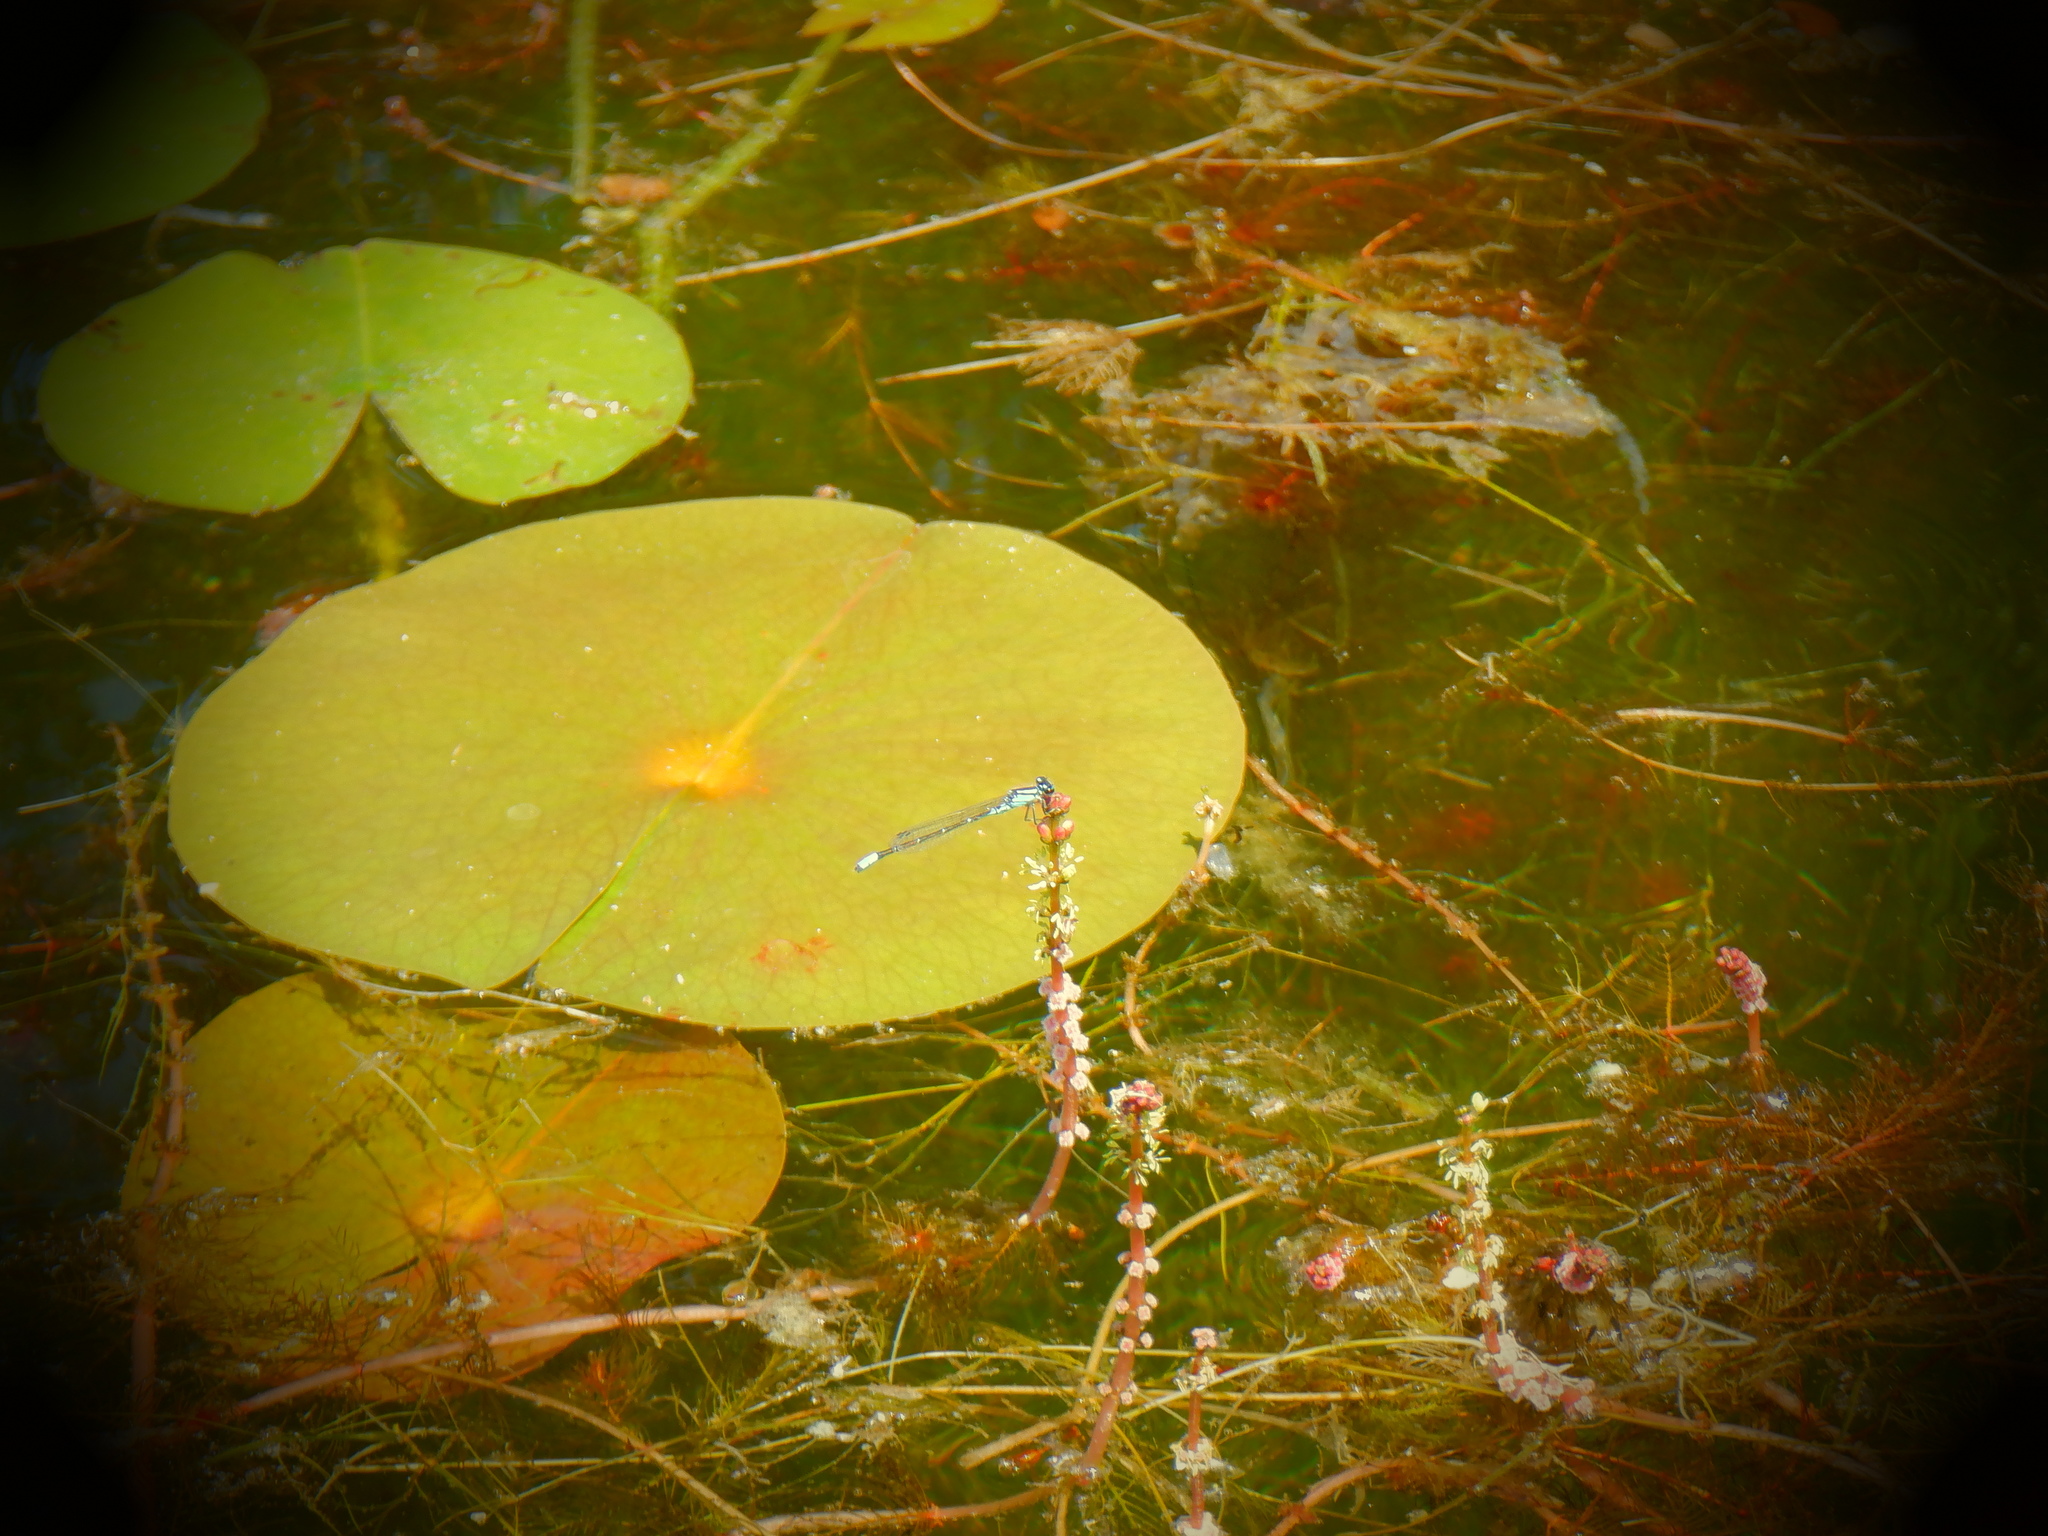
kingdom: Animalia
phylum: Arthropoda
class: Insecta
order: Odonata
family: Coenagrionidae
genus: Enallagma
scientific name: Enallagma geminatum
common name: Skimming bluet
